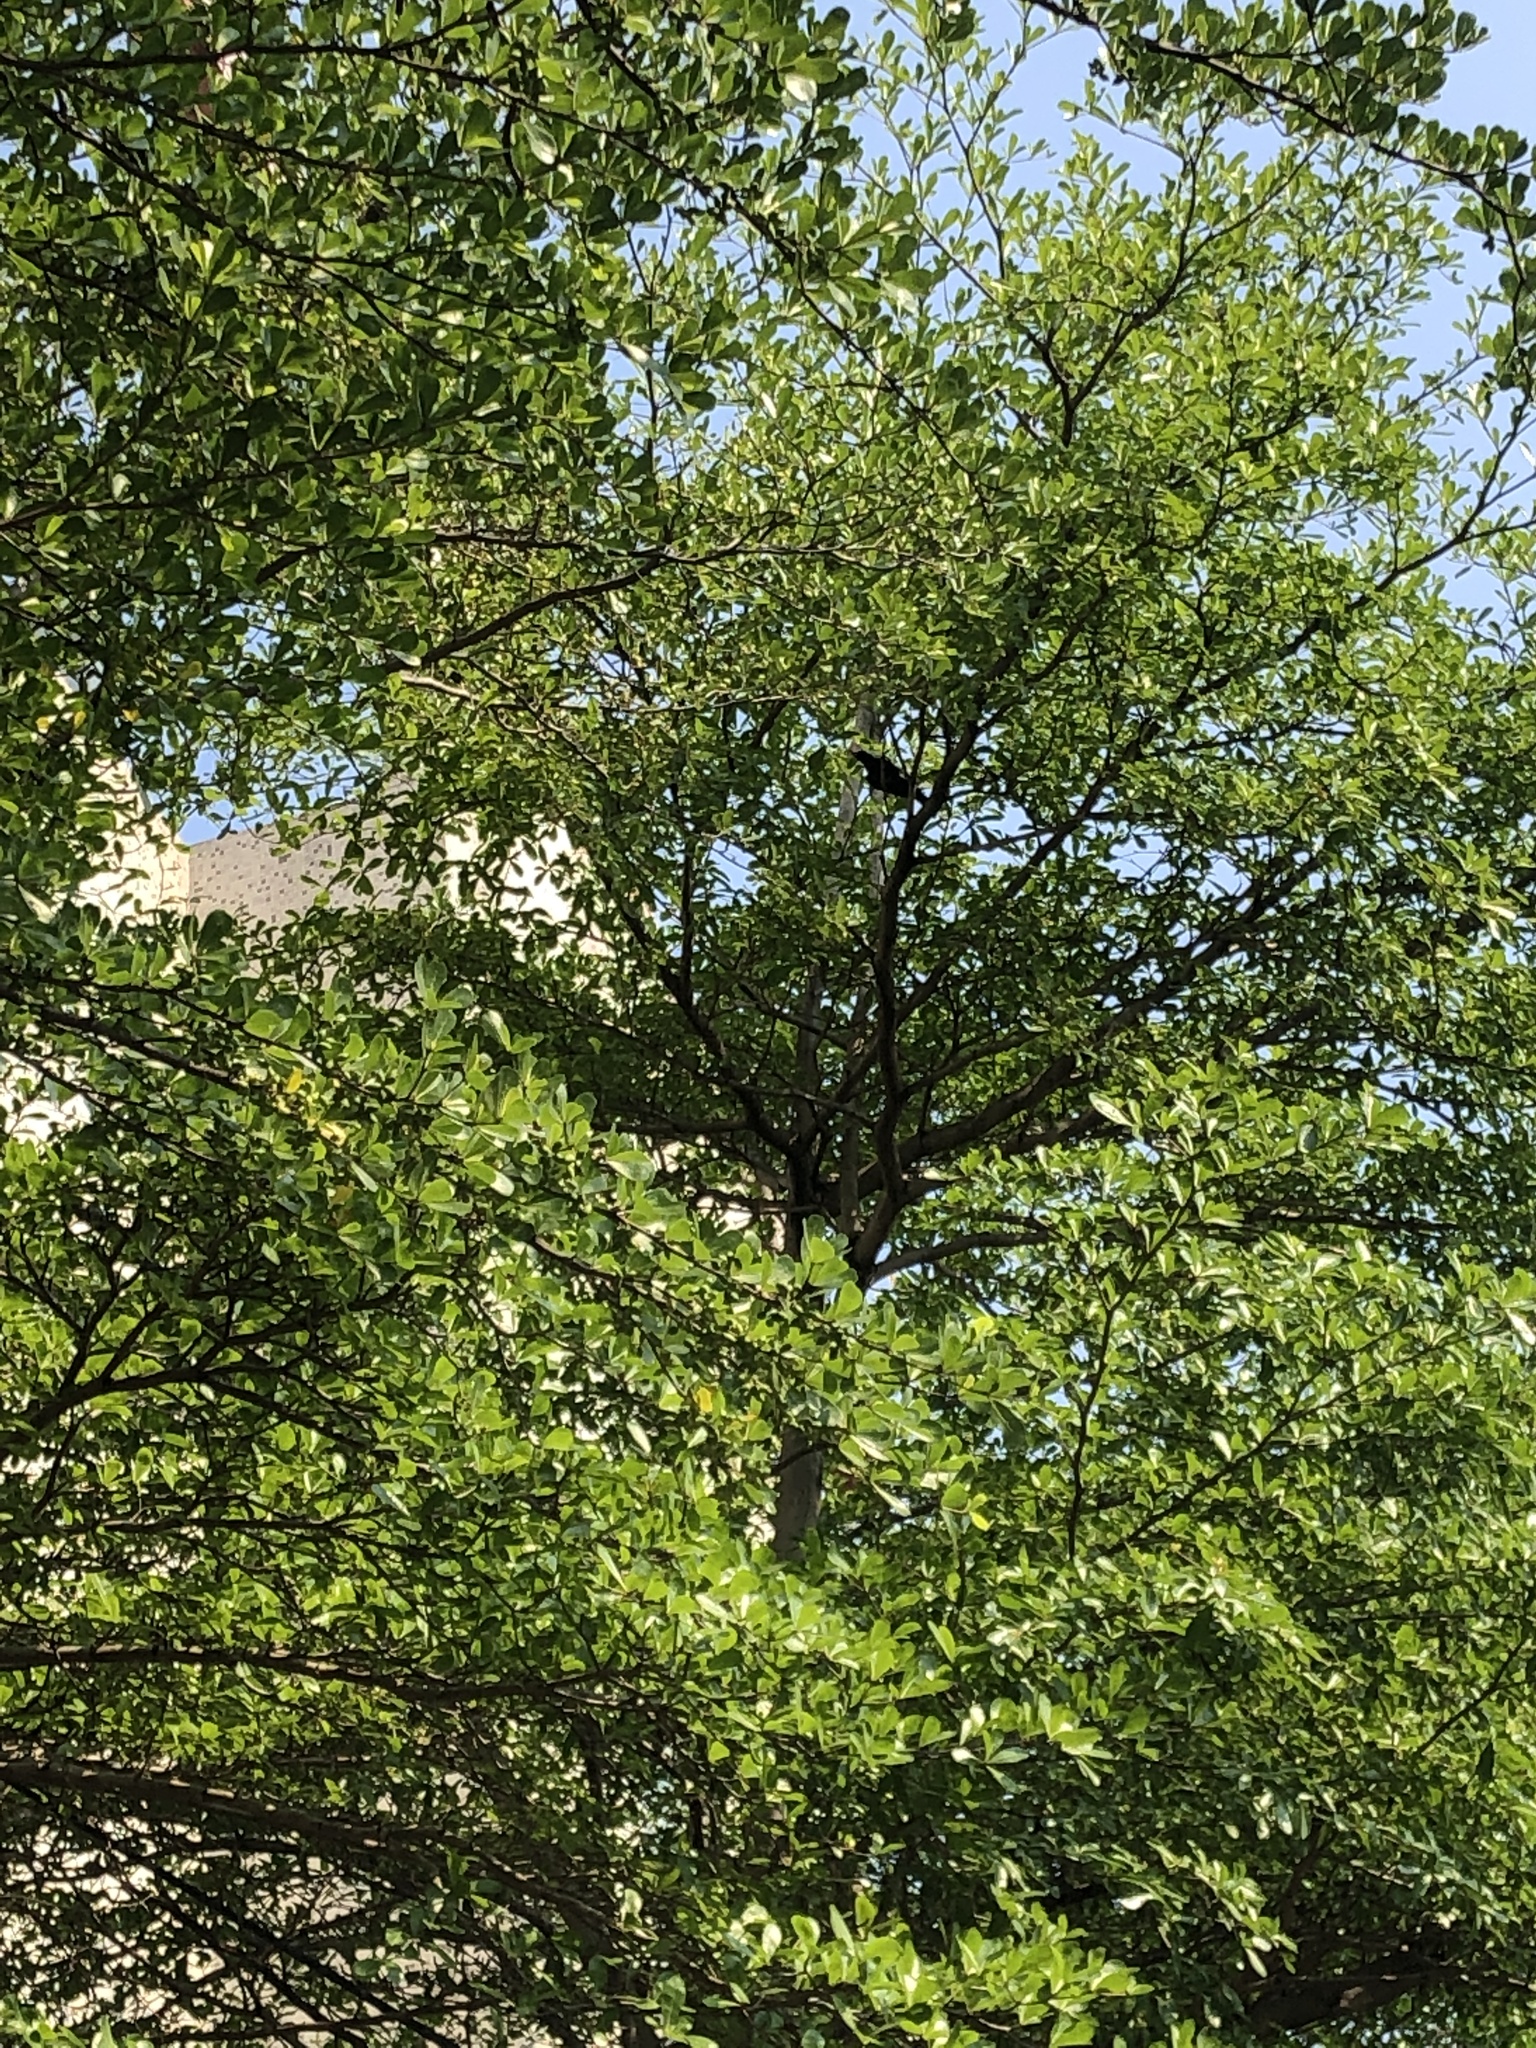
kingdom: Animalia
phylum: Chordata
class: Aves
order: Passeriformes
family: Pycnonotidae
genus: Hypsipetes
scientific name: Hypsipetes leucocephalus
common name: Black bulbul
